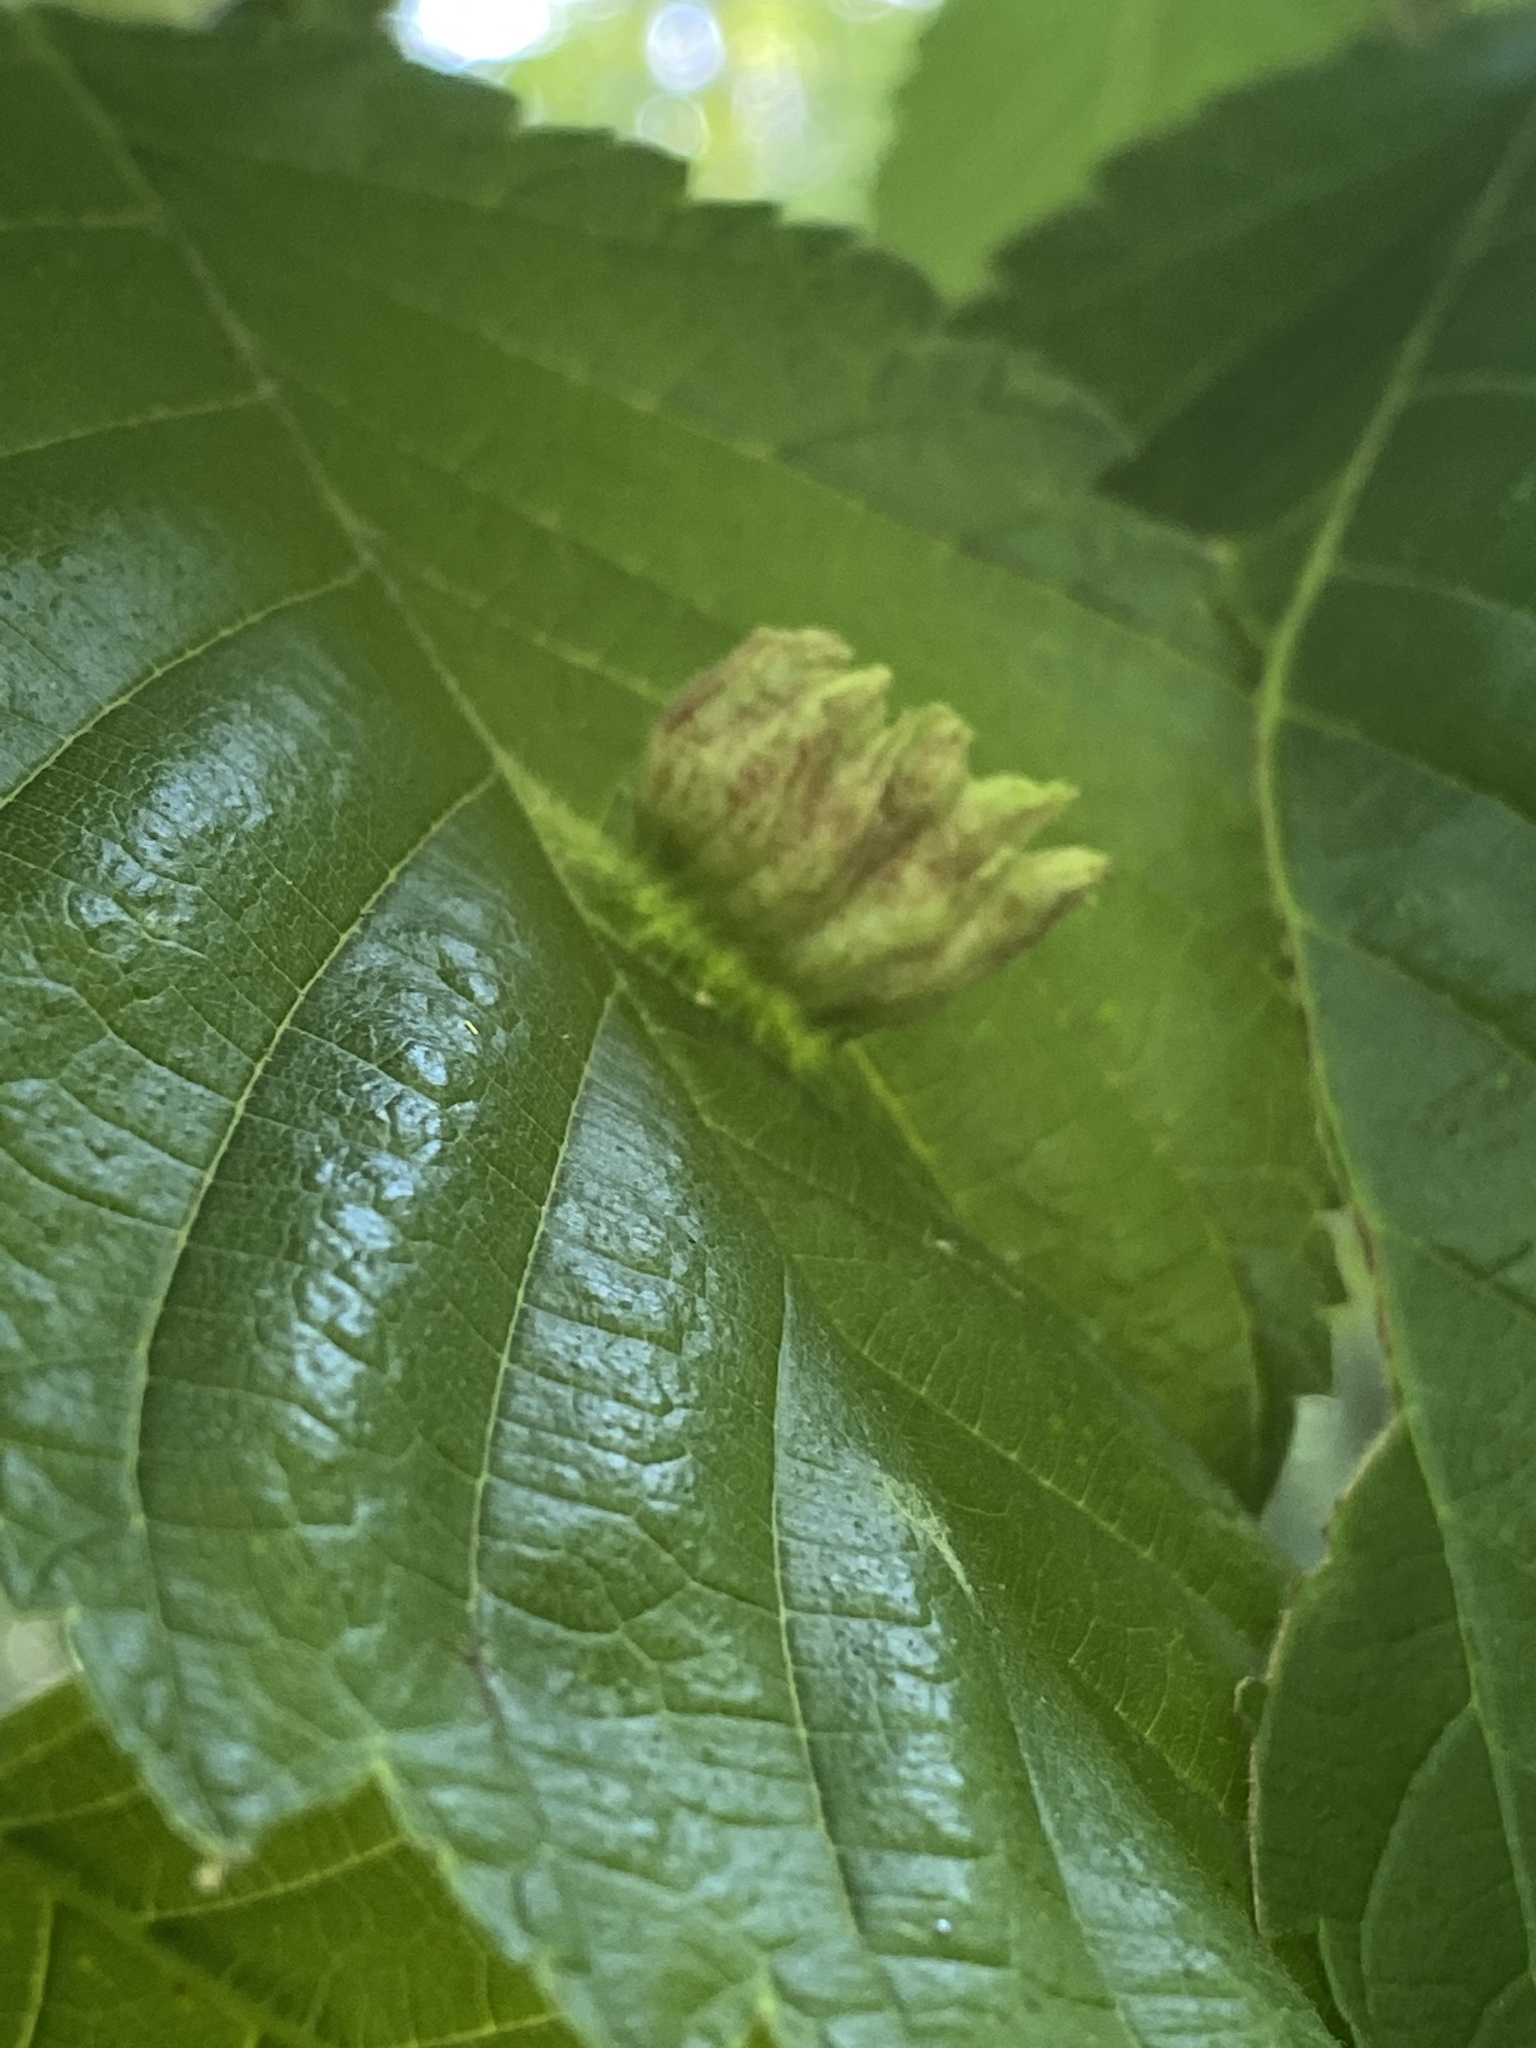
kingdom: Animalia
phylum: Arthropoda
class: Insecta
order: Hemiptera
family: Aphididae
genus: Colopha
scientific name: Colopha ulmicola
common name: Elm cockscombgall aphid
